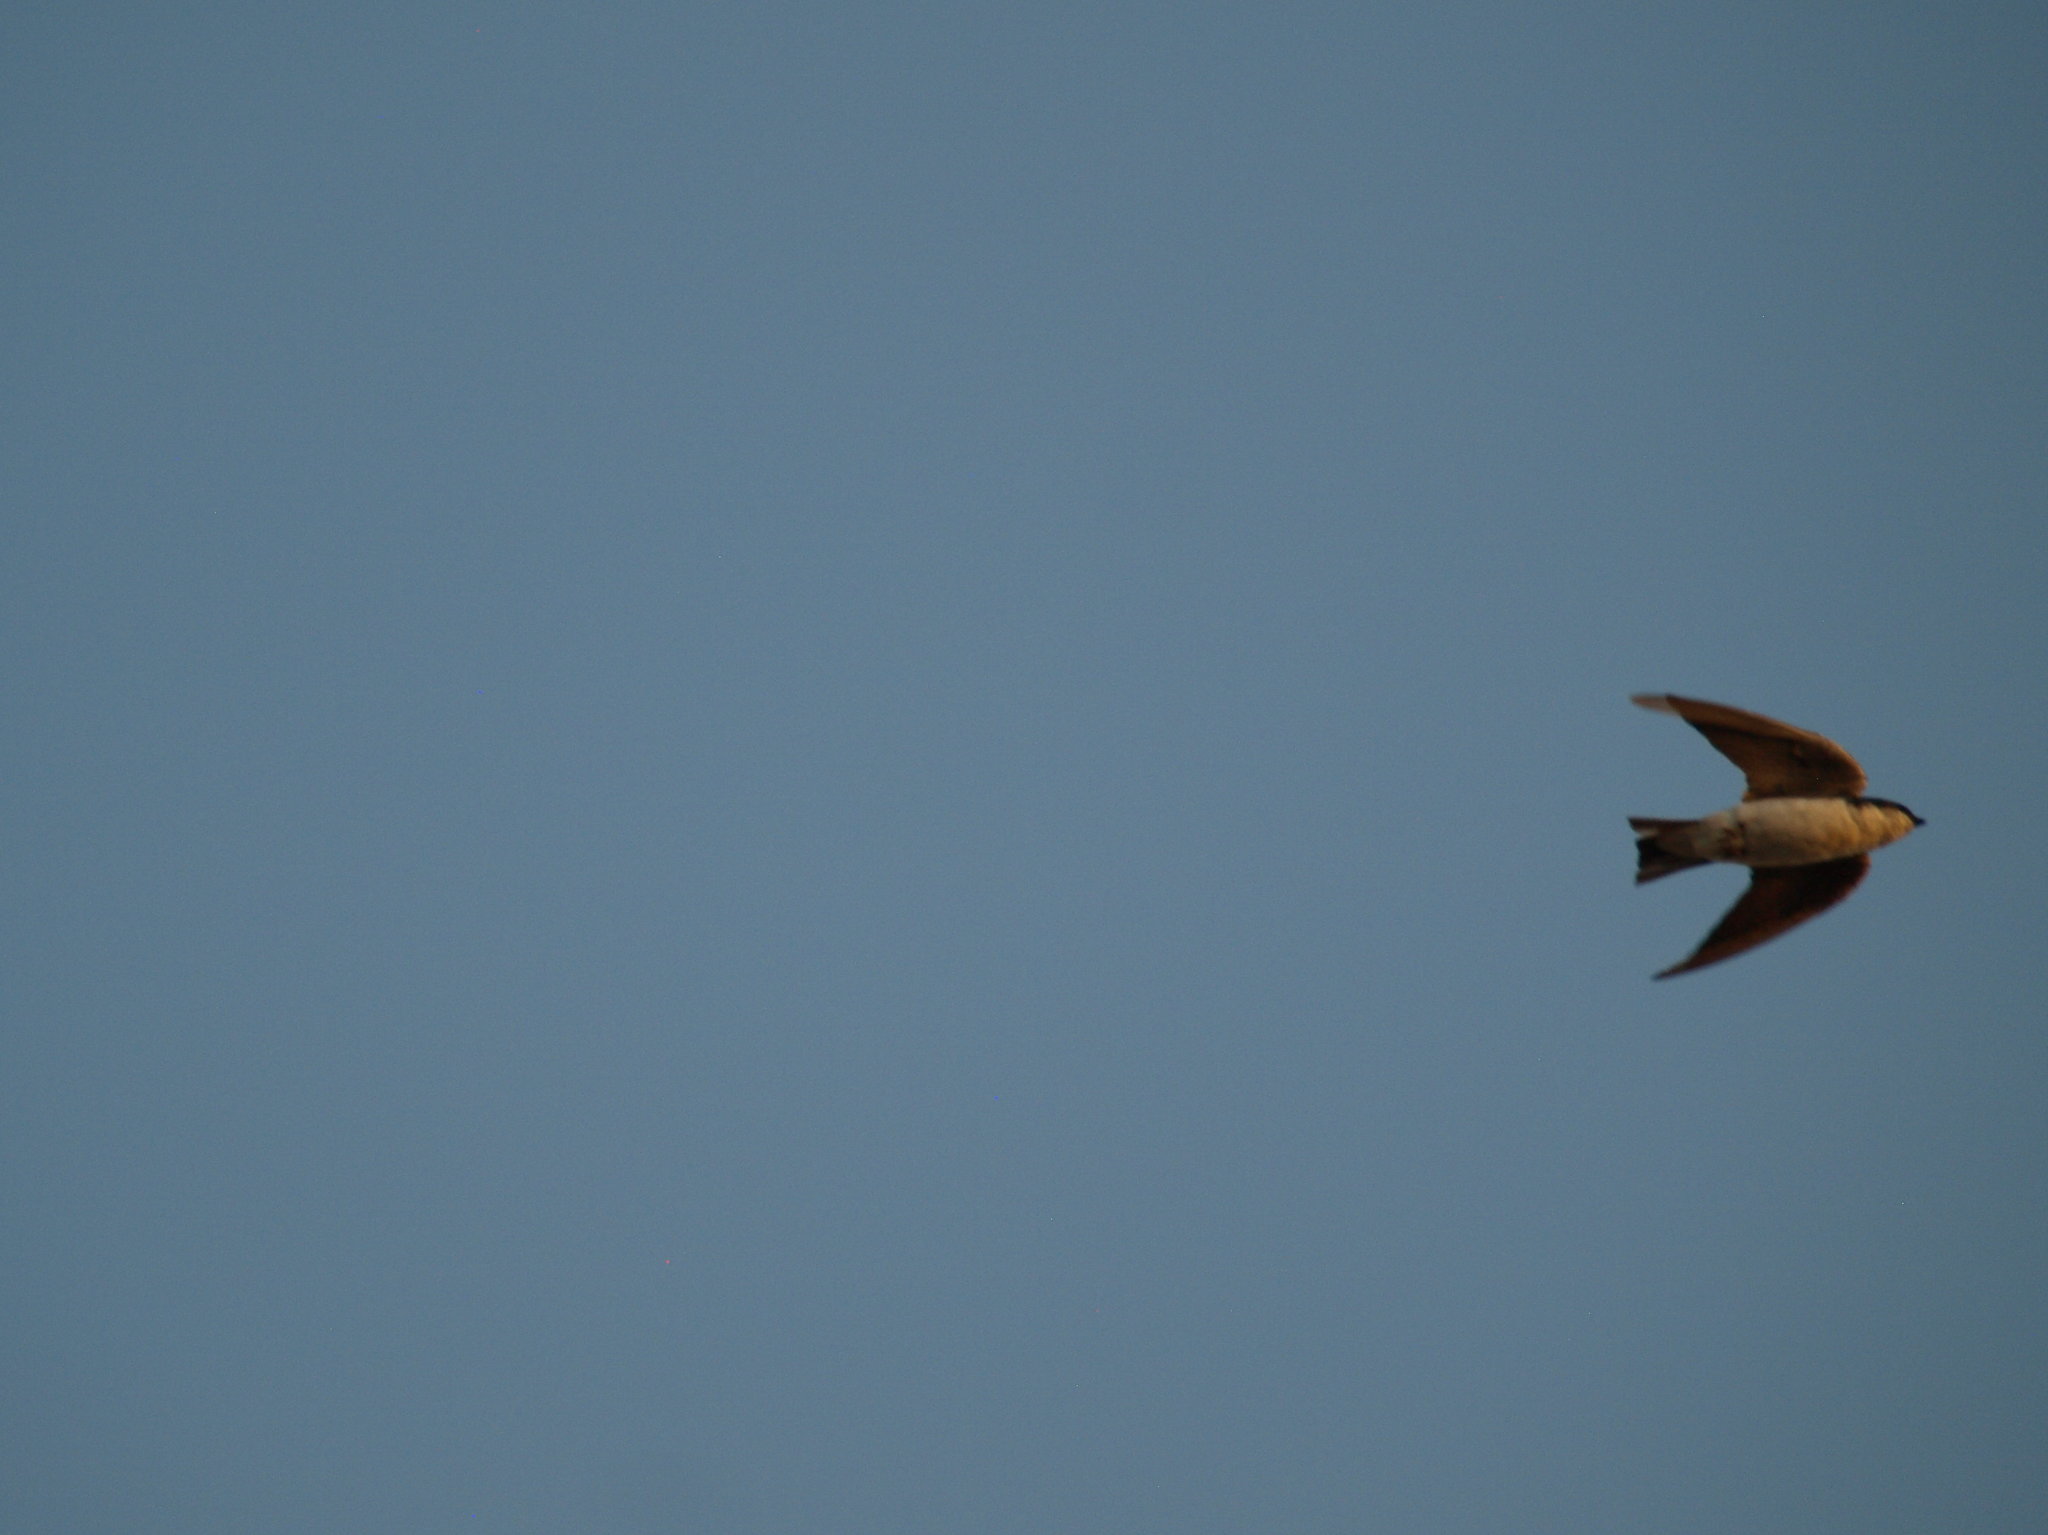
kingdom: Animalia
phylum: Chordata
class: Aves
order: Passeriformes
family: Hirundinidae
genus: Tachycineta
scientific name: Tachycineta bicolor
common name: Tree swallow
